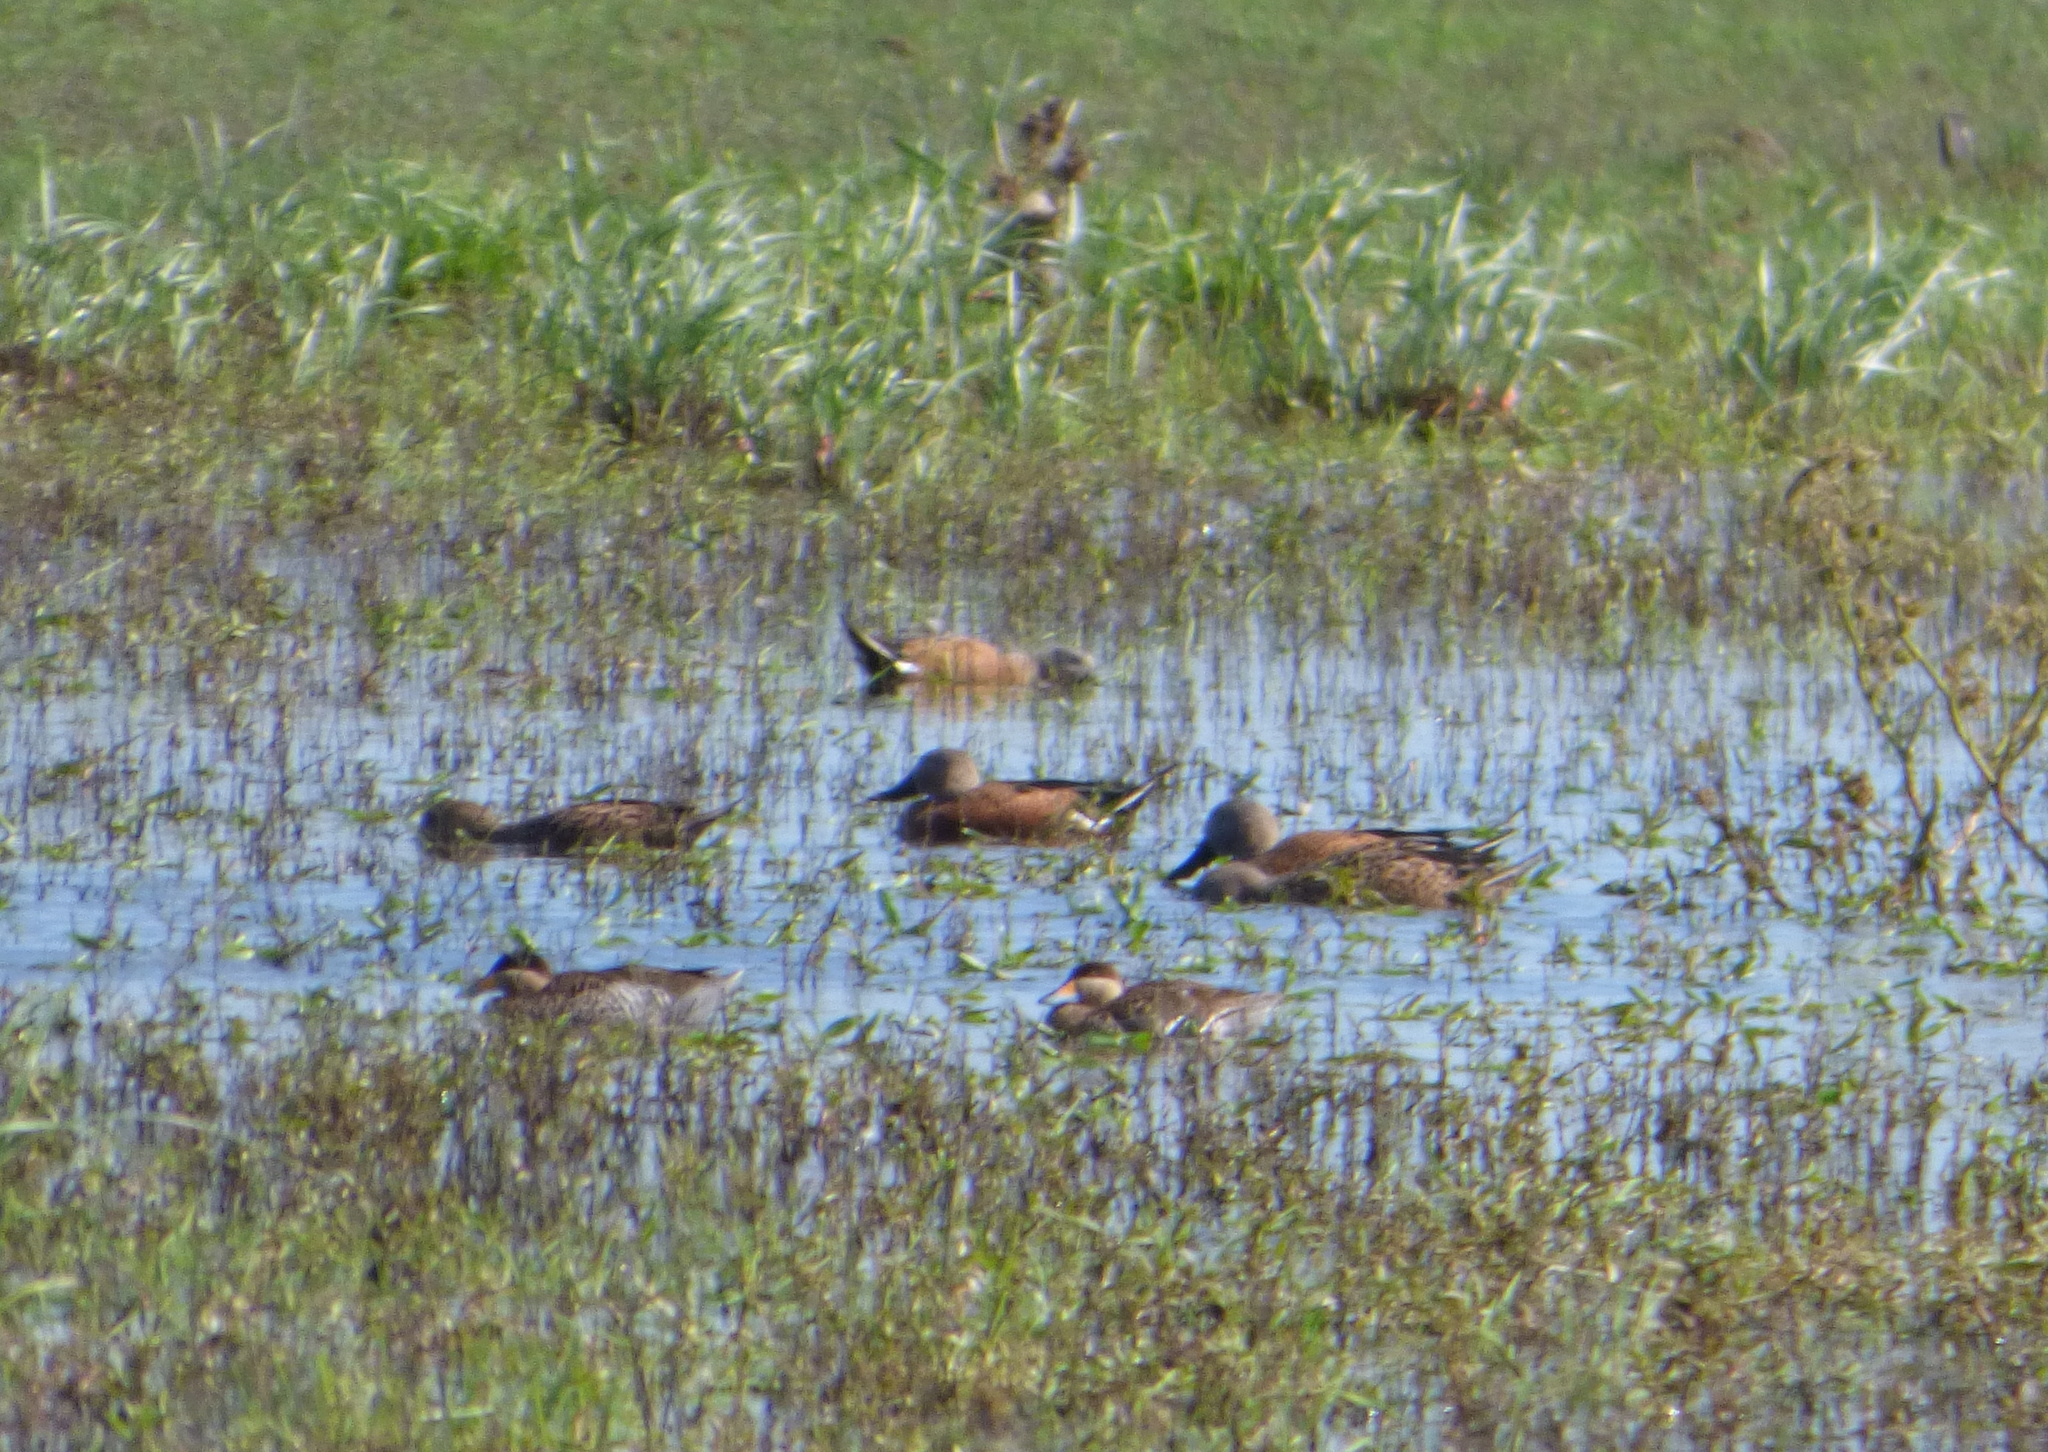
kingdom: Animalia
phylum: Chordata
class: Aves
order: Anseriformes
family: Anatidae
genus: Spatula
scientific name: Spatula platalea
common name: Red shoveler
